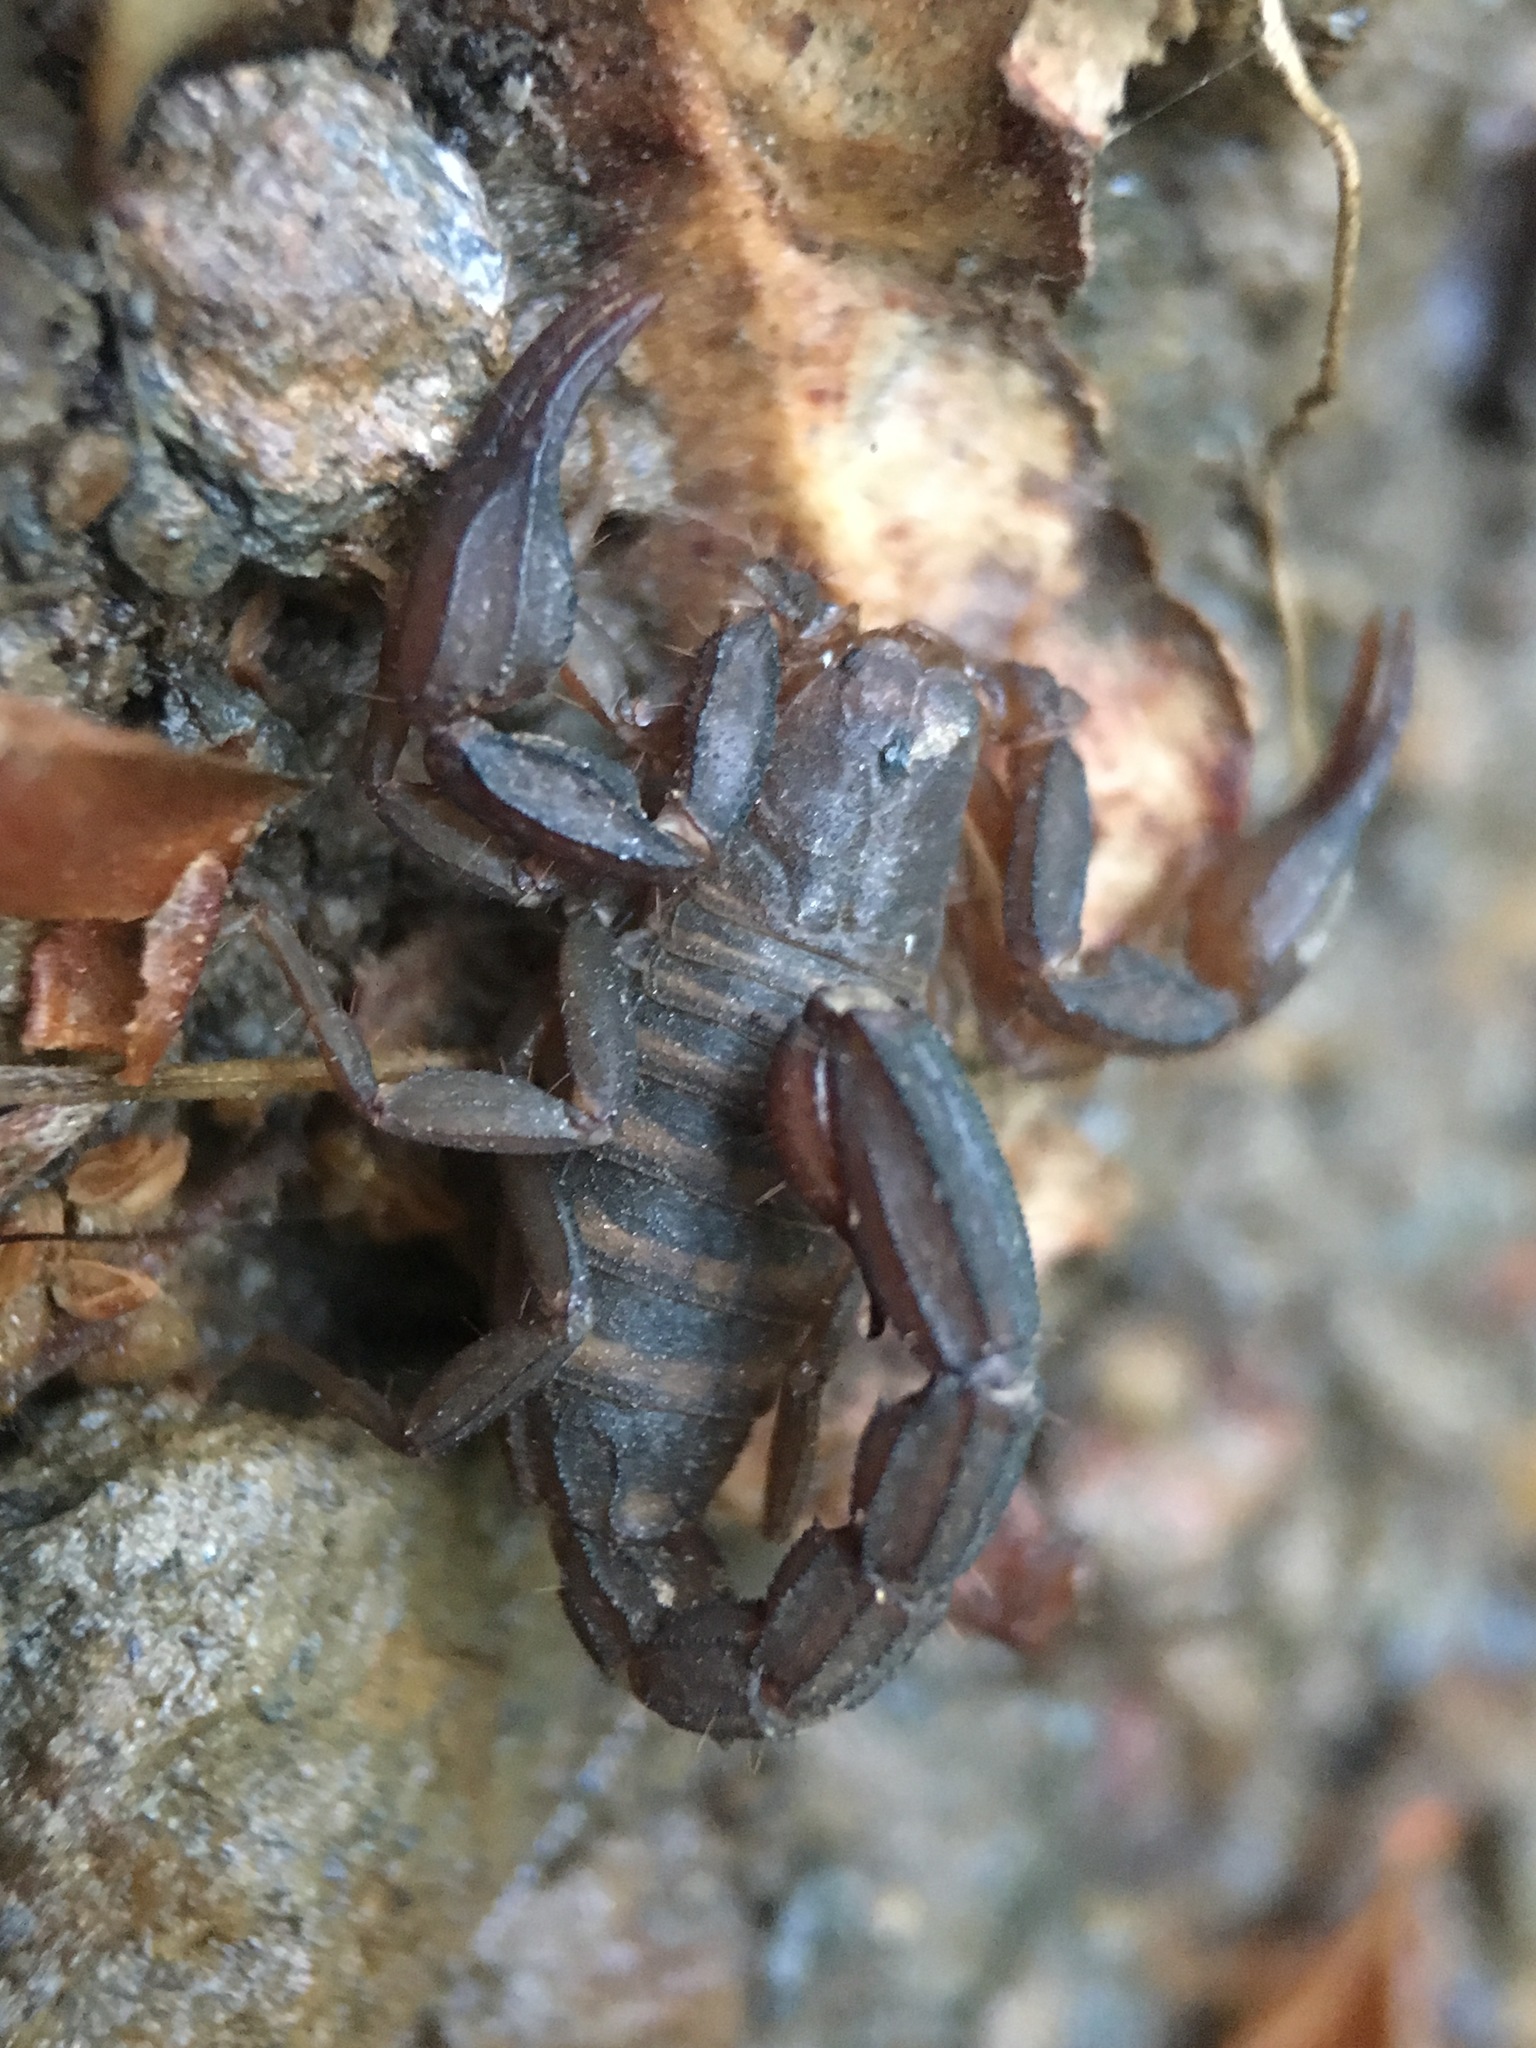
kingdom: Animalia
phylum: Arthropoda
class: Arachnida
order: Scorpiones
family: Vaejovidae
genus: Graemeloweus
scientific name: Graemeloweus iviei
